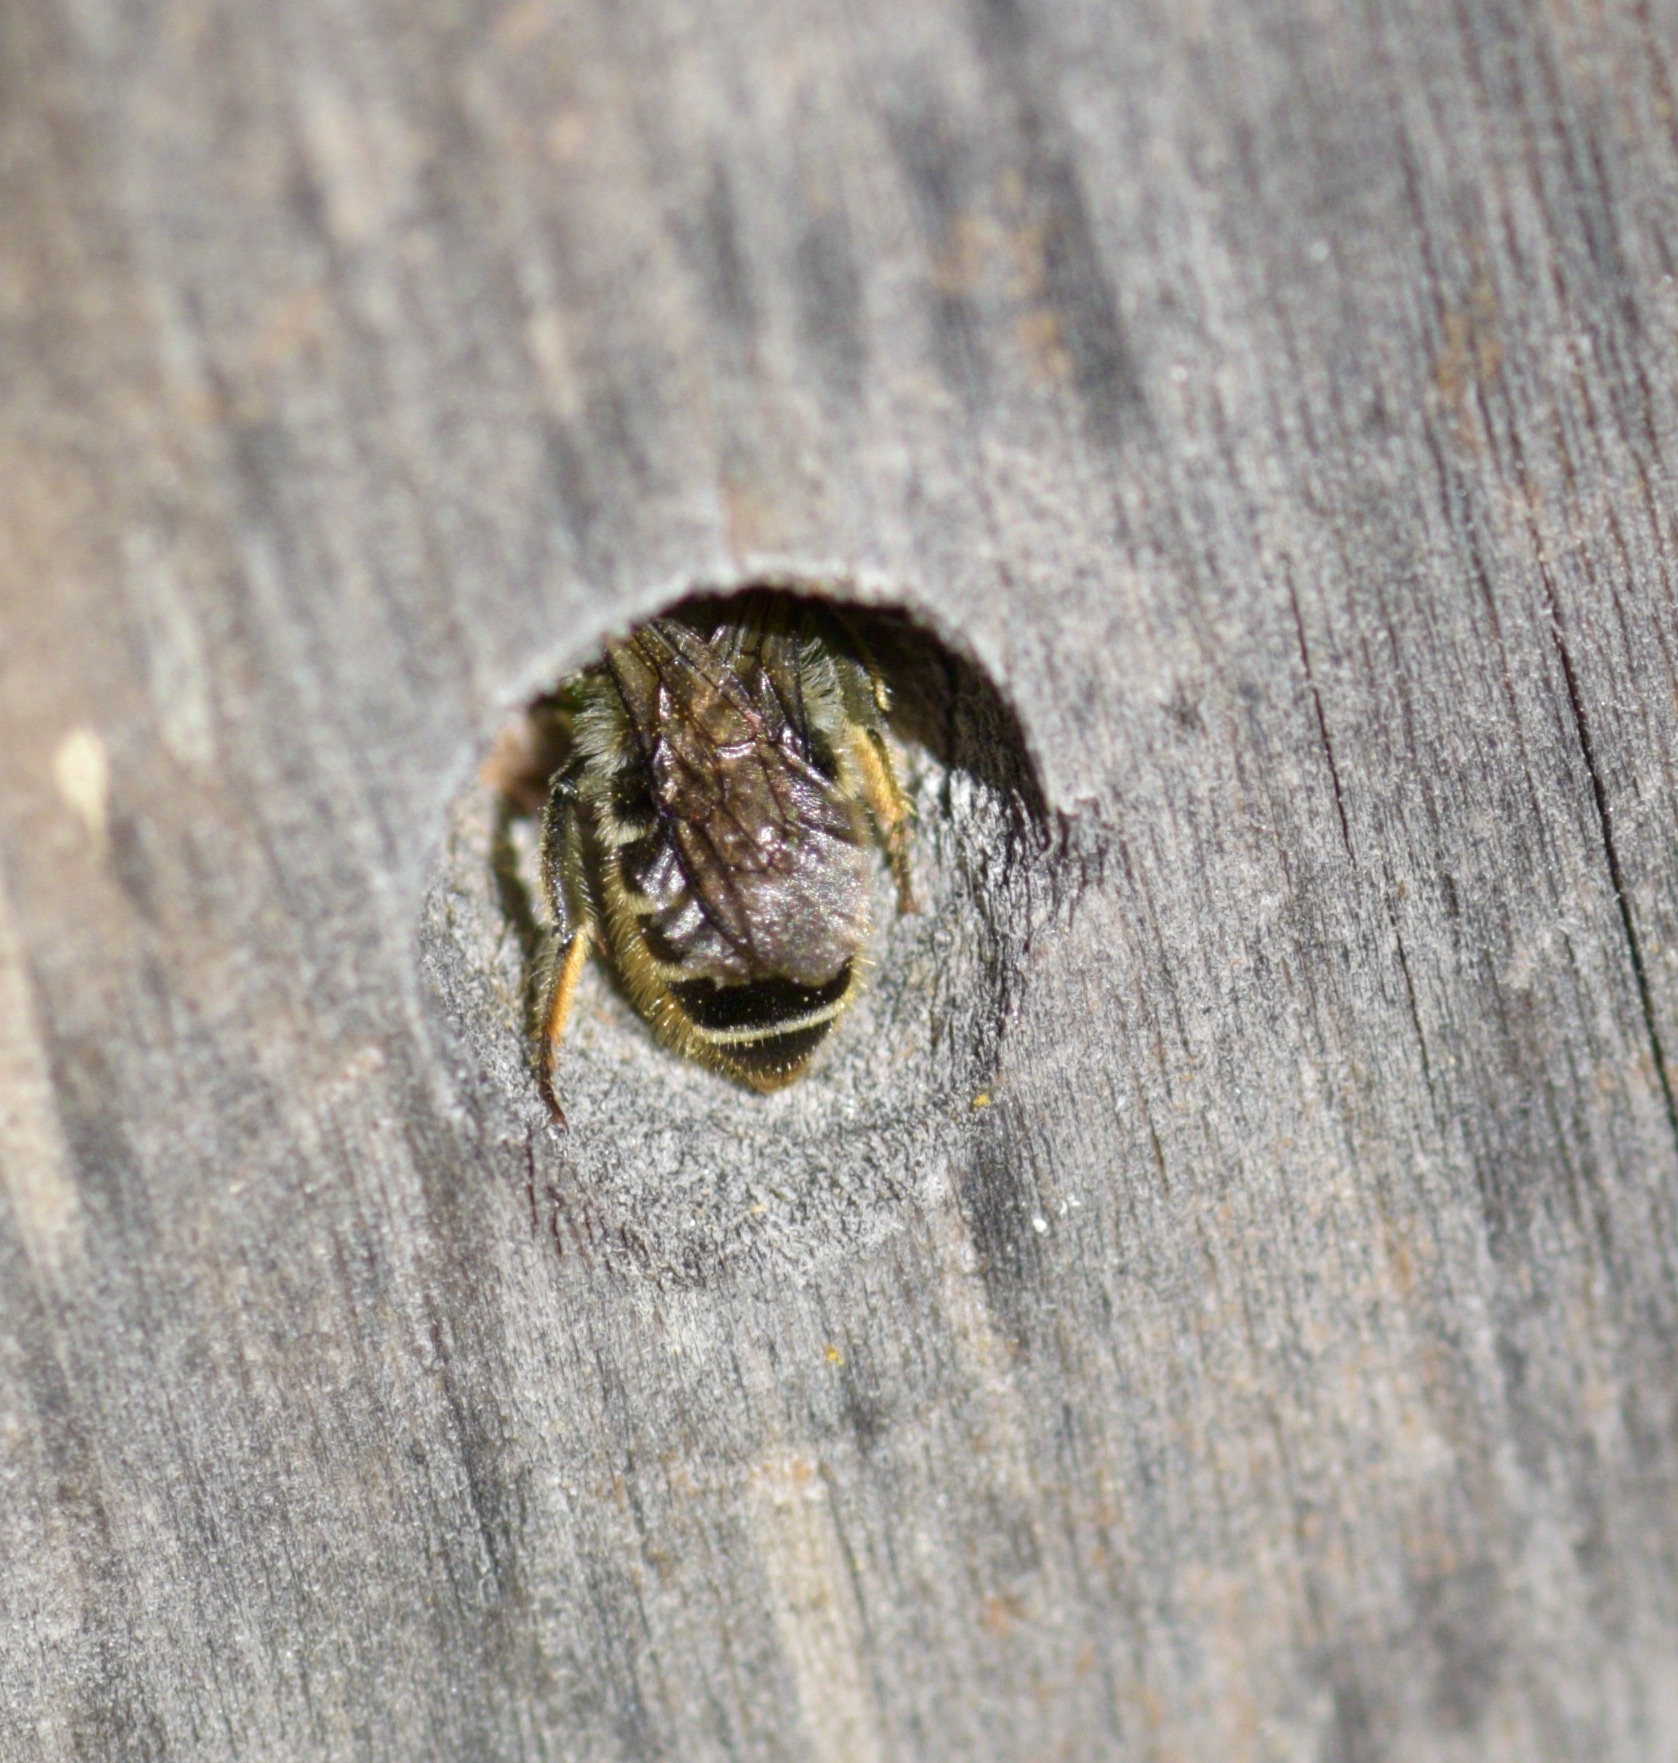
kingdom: Animalia
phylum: Arthropoda
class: Insecta
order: Hymenoptera
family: Megachilidae
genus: Megachile
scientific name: Megachile relativa
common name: Golden-tailed leafcutter
